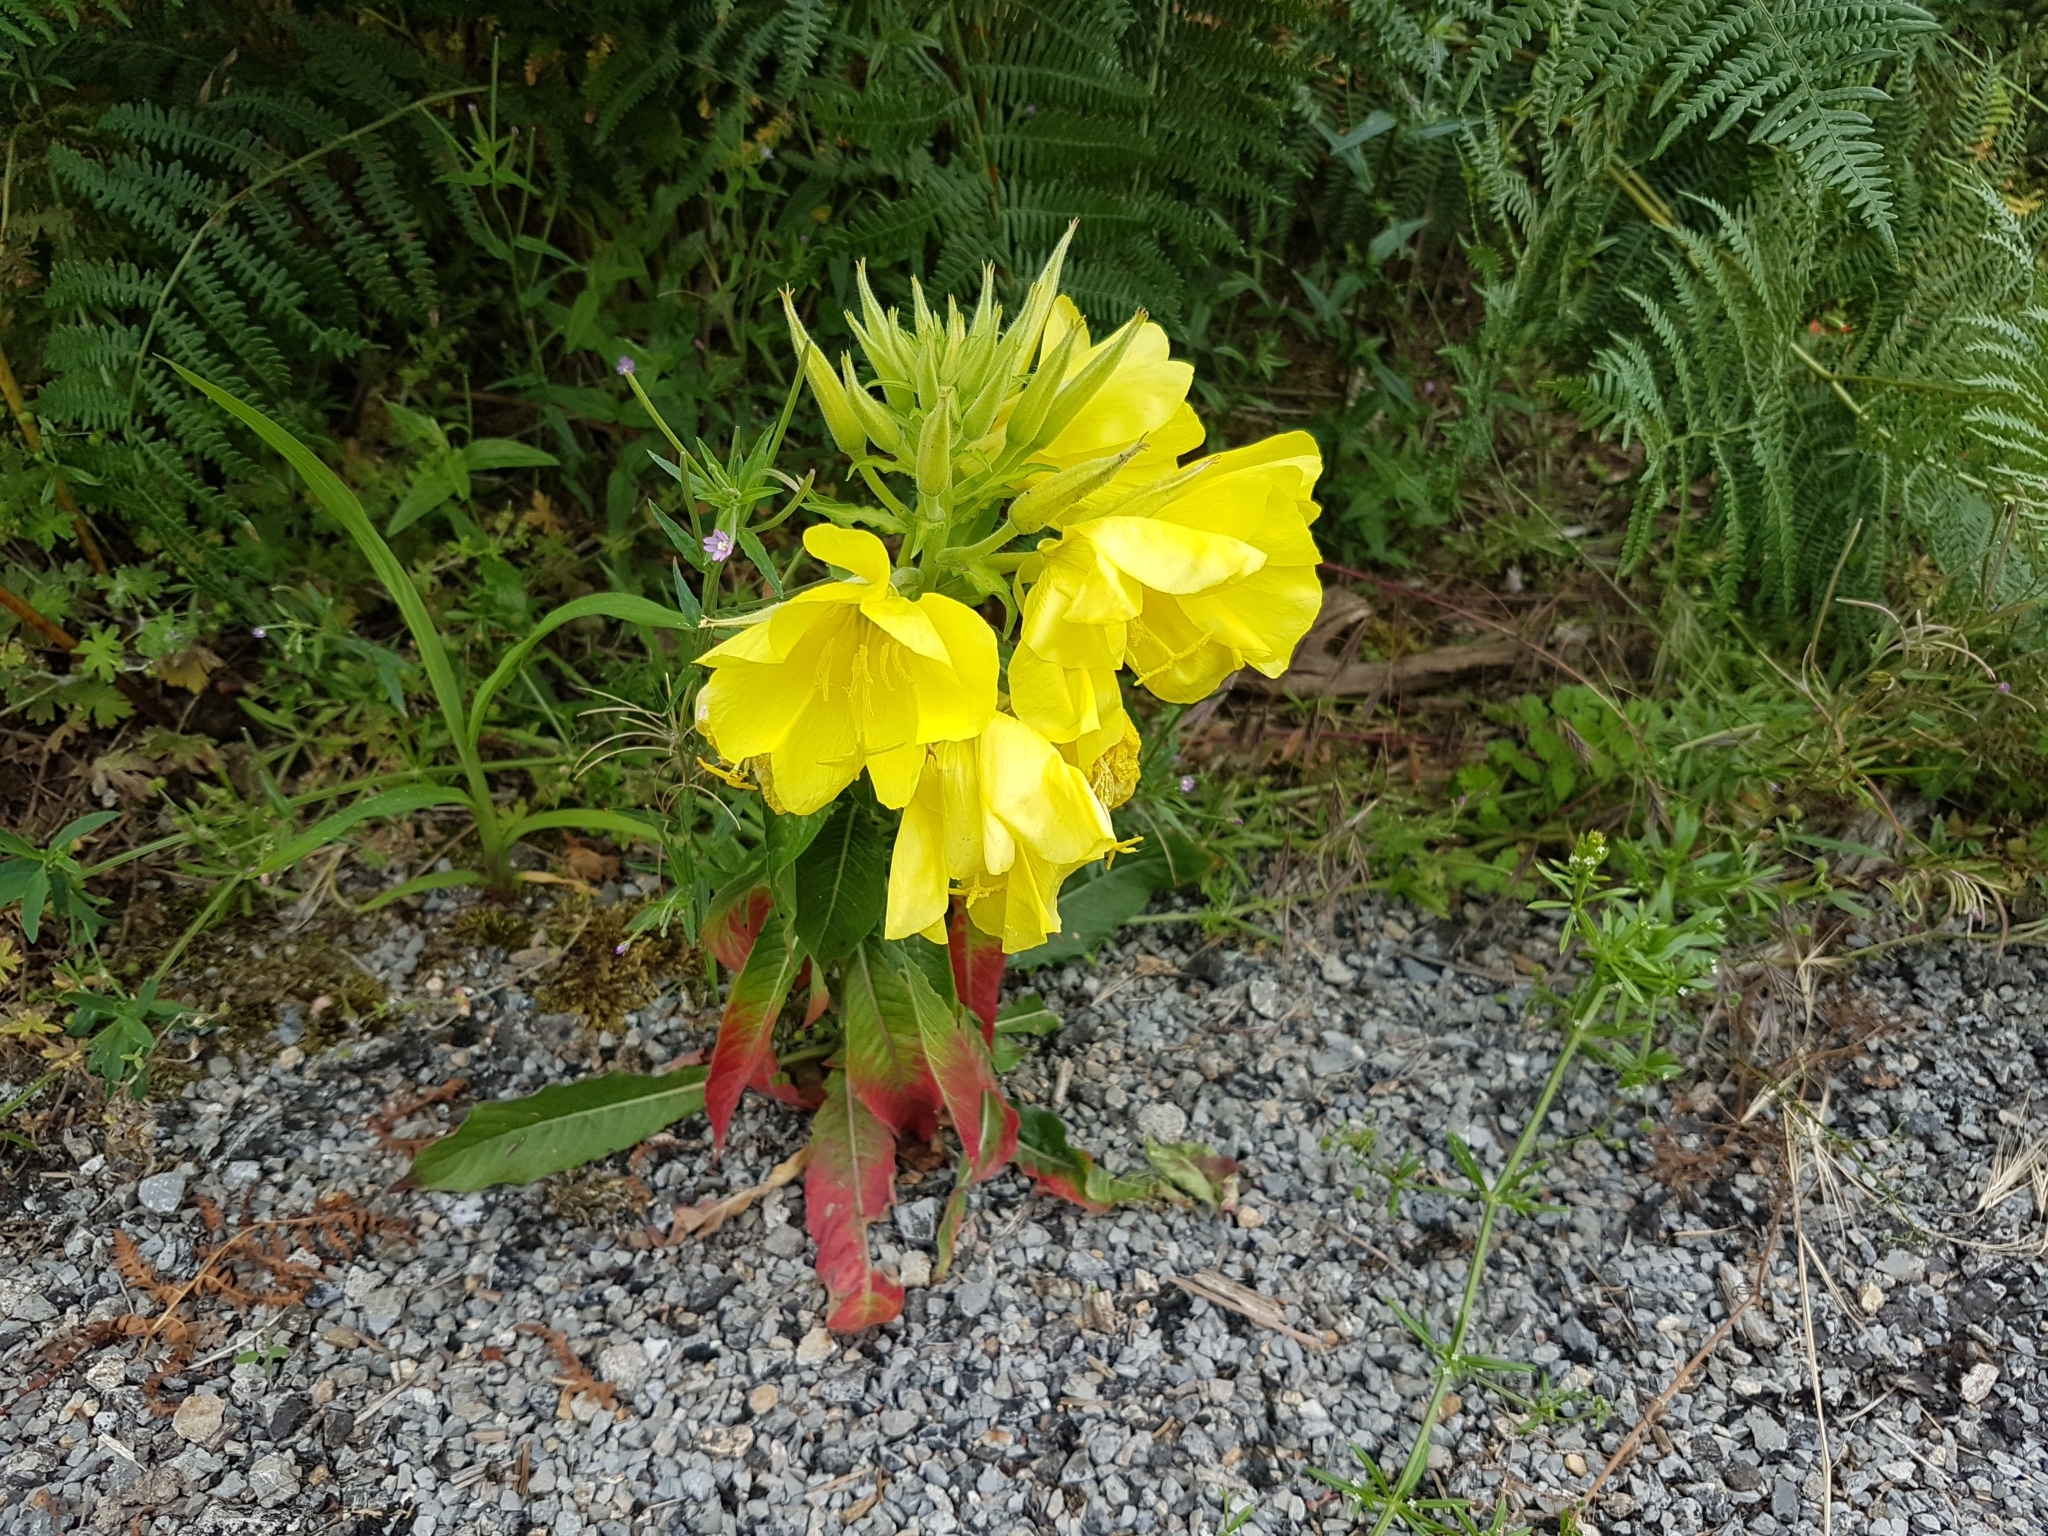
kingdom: Plantae
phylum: Tracheophyta
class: Magnoliopsida
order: Myrtales
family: Onagraceae
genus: Oenothera
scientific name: Oenothera glazioviana
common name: Large-flowered evening-primrose
